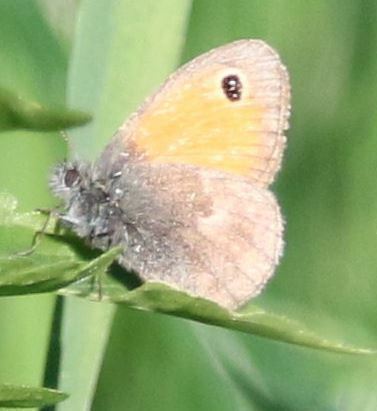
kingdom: Animalia
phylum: Arthropoda
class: Insecta
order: Lepidoptera
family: Nymphalidae
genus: Coenonympha
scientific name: Coenonympha pamphilus
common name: Small heath
